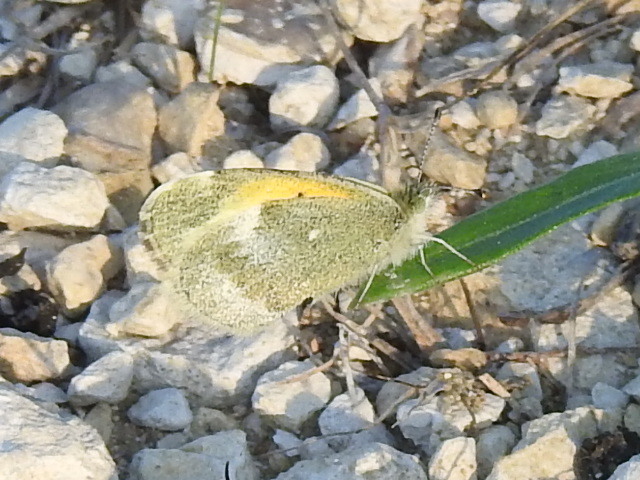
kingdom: Animalia
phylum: Arthropoda
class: Insecta
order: Lepidoptera
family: Pieridae
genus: Nathalis
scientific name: Nathalis iole
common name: Dainty sulphur
